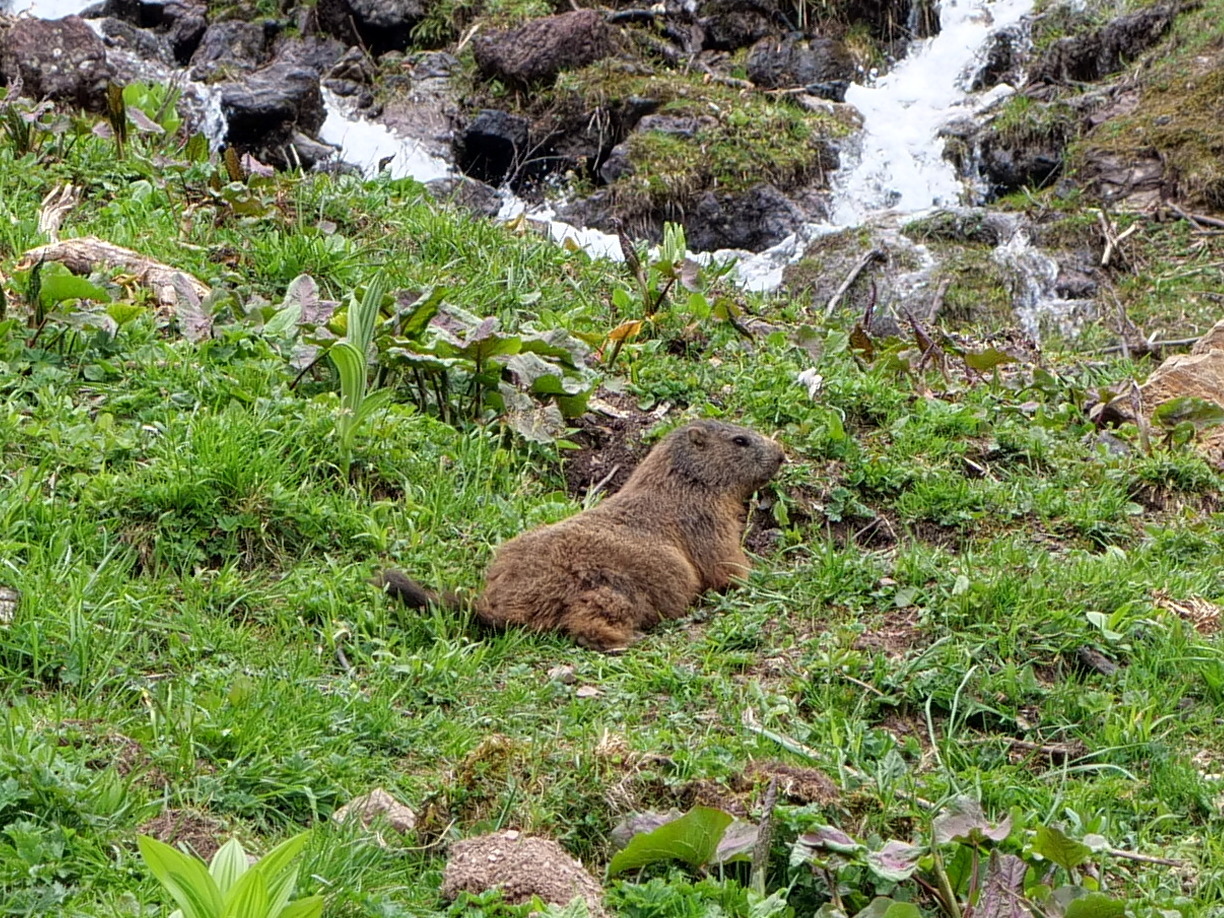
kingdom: Animalia
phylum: Chordata
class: Mammalia
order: Rodentia
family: Sciuridae
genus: Marmota
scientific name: Marmota marmota
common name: Alpine marmot
